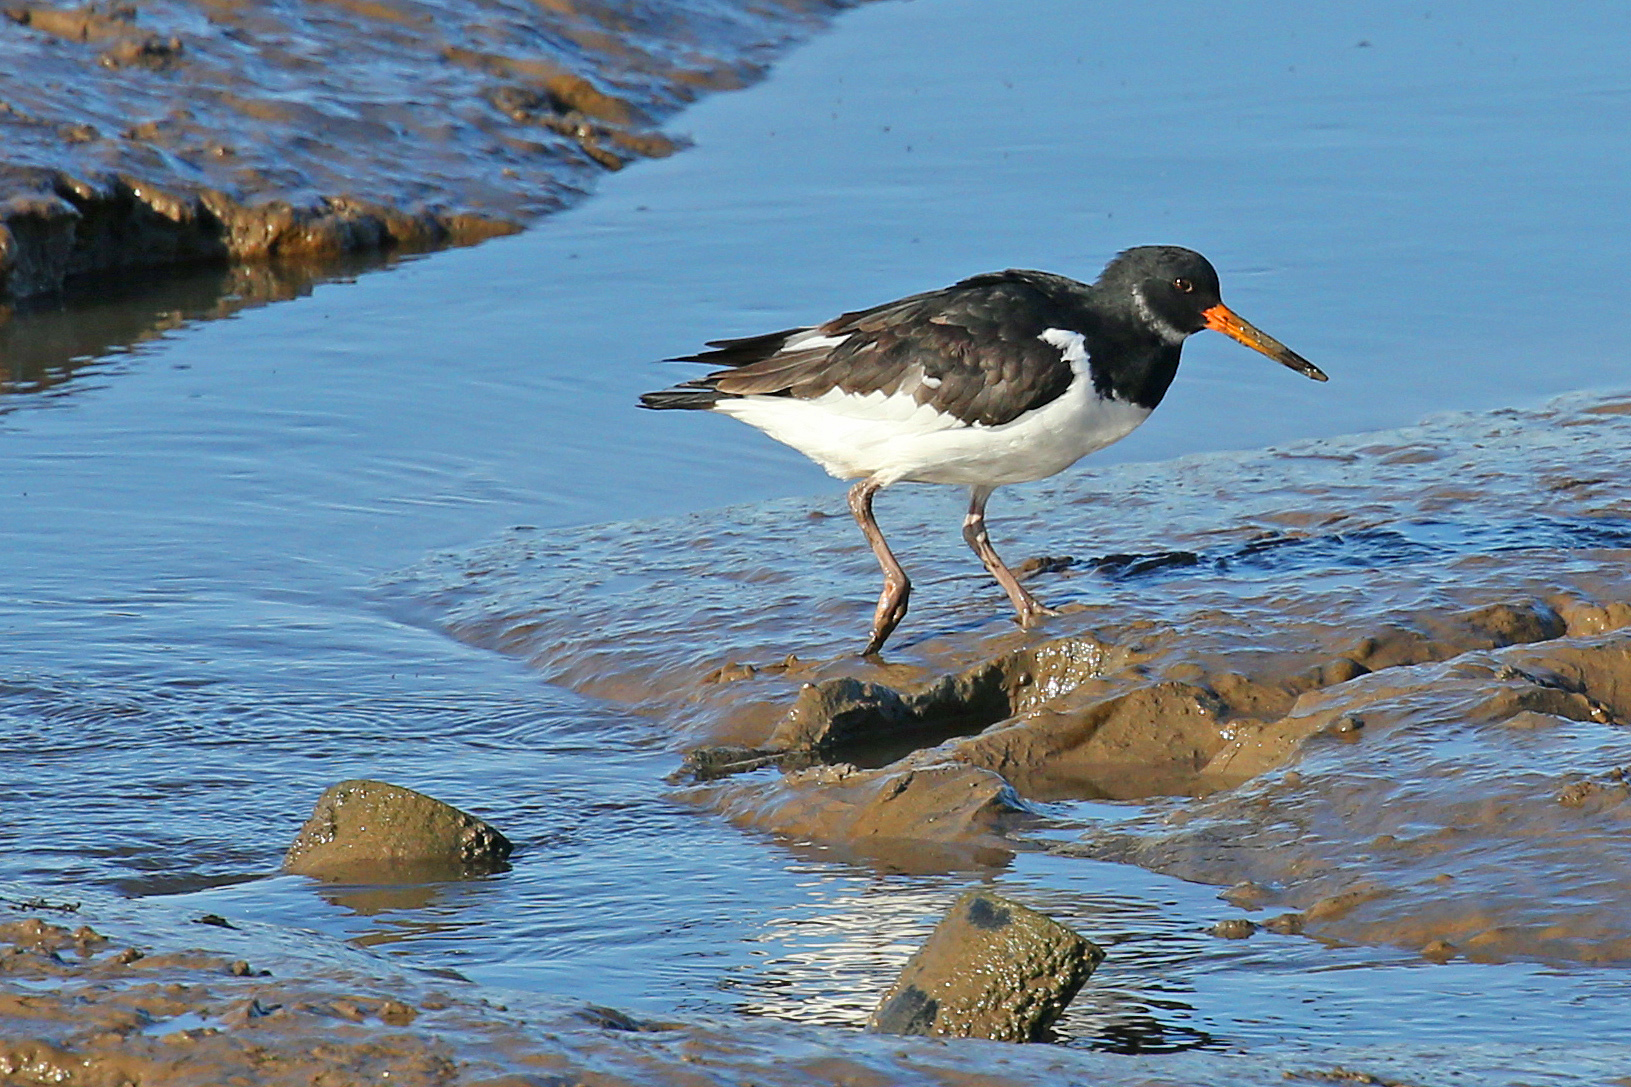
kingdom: Animalia
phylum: Chordata
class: Aves
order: Charadriiformes
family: Haematopodidae
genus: Haematopus
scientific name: Haematopus ostralegus
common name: Eurasian oystercatcher
